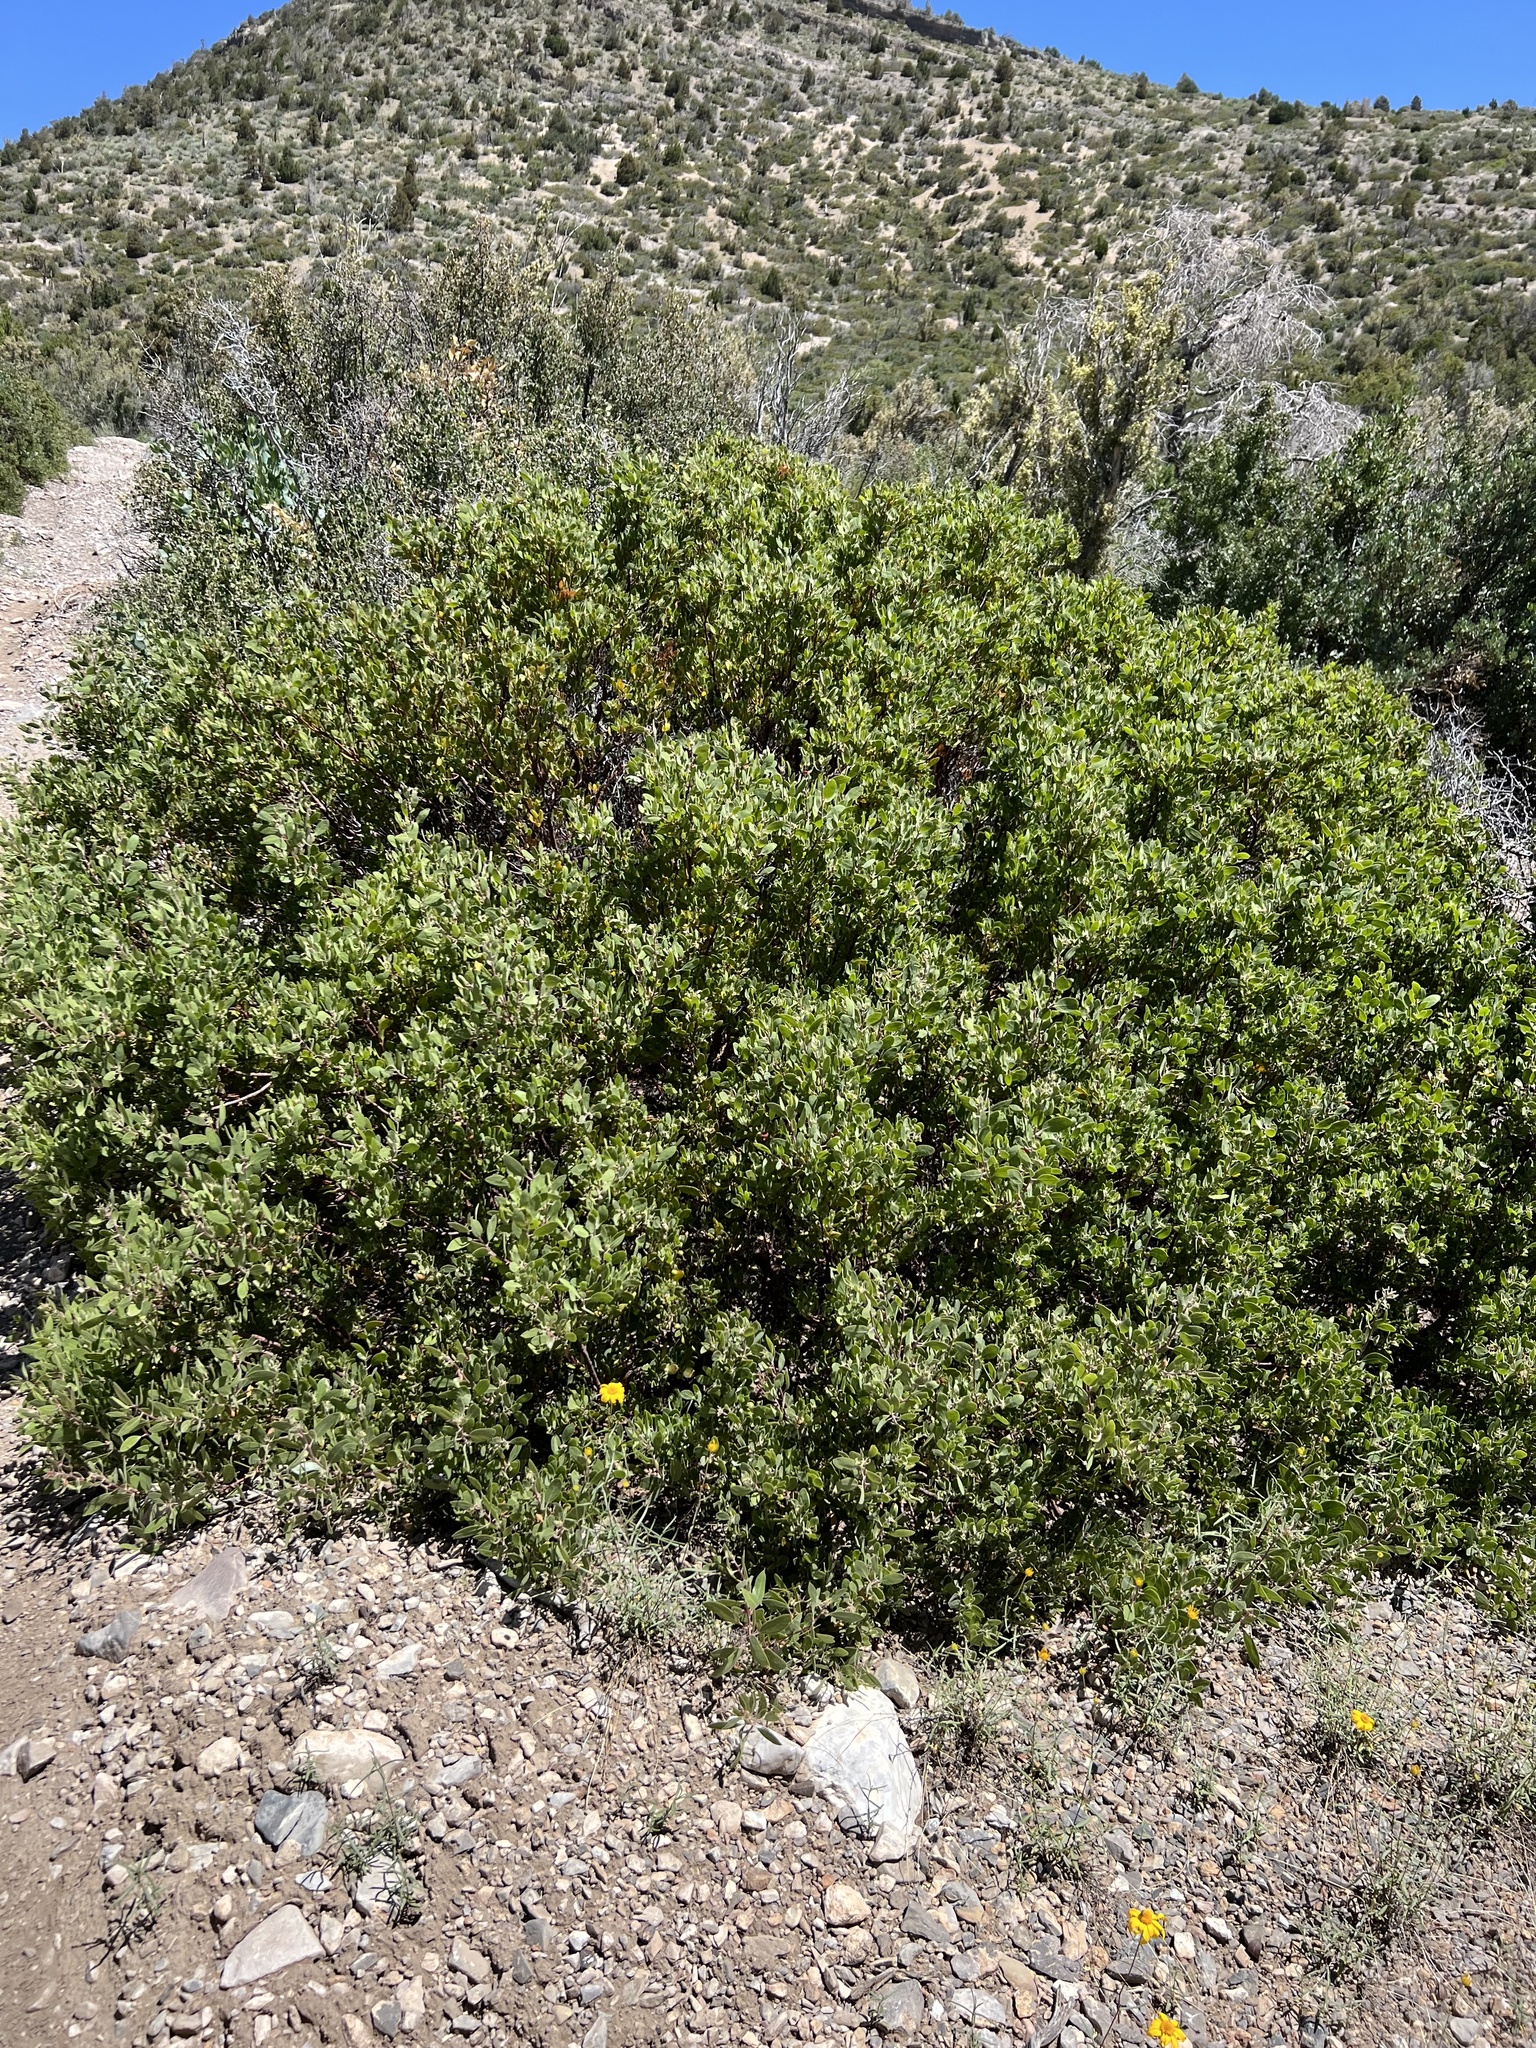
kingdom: Plantae
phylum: Tracheophyta
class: Magnoliopsida
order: Ericales
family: Ericaceae
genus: Arctostaphylos
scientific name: Arctostaphylos pungens
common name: Mexican manzanita
